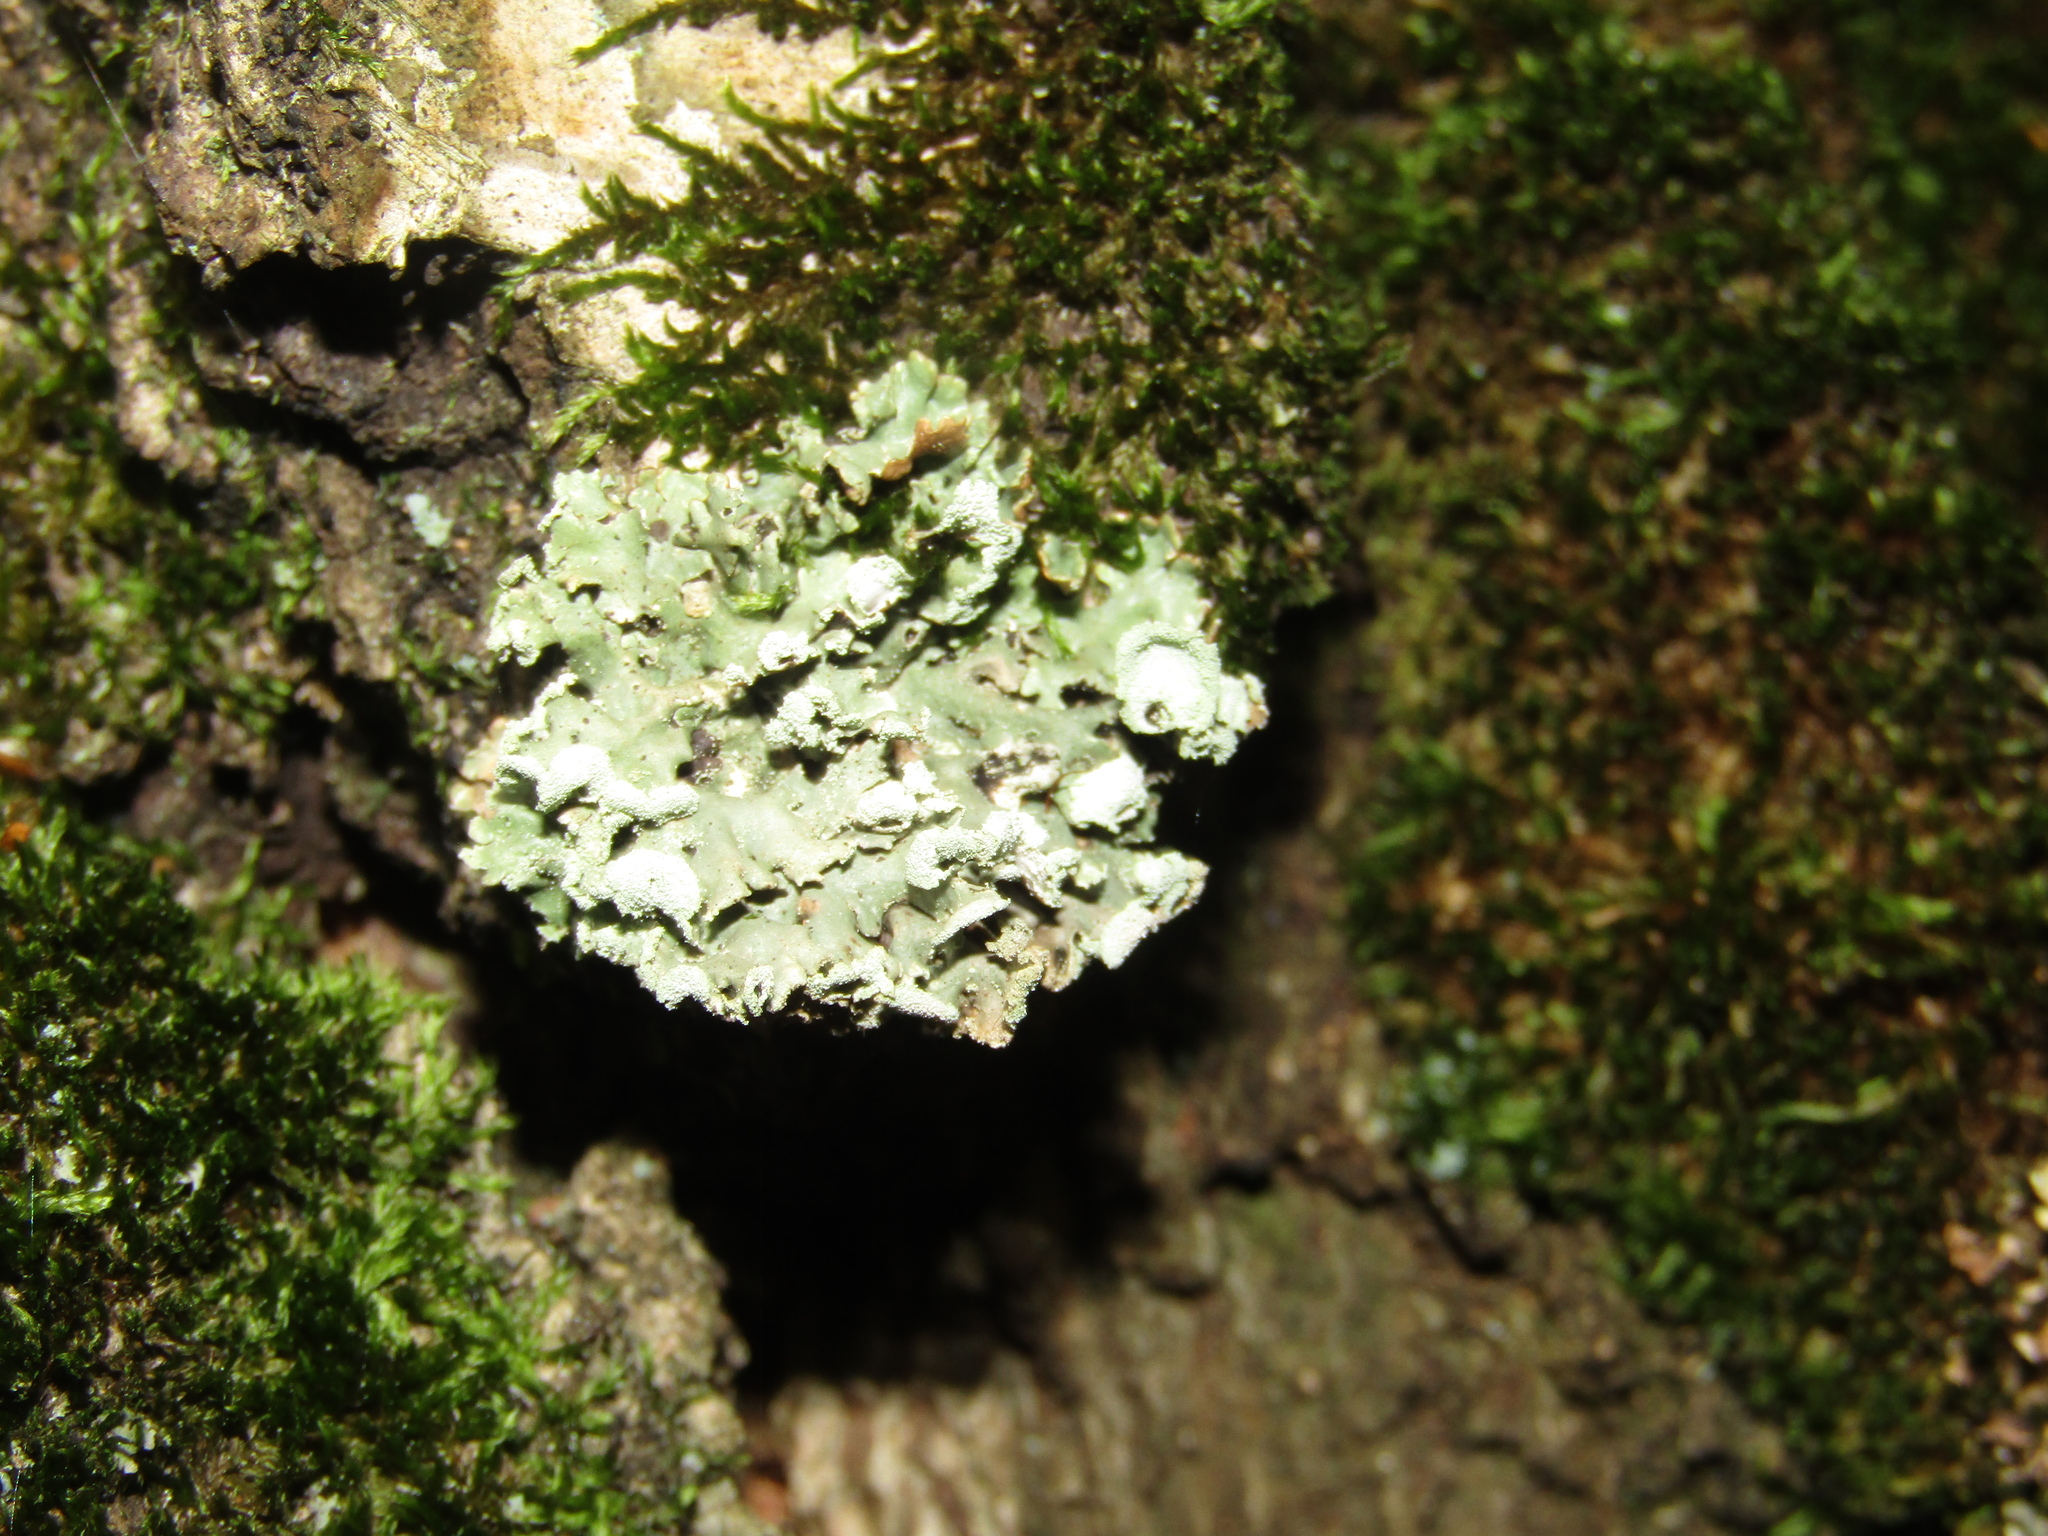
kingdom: Fungi
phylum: Ascomycota
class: Lecanoromycetes
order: Lecanorales
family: Parmeliaceae
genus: Hypogymnia
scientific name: Hypogymnia physodes
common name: Dark crottle
